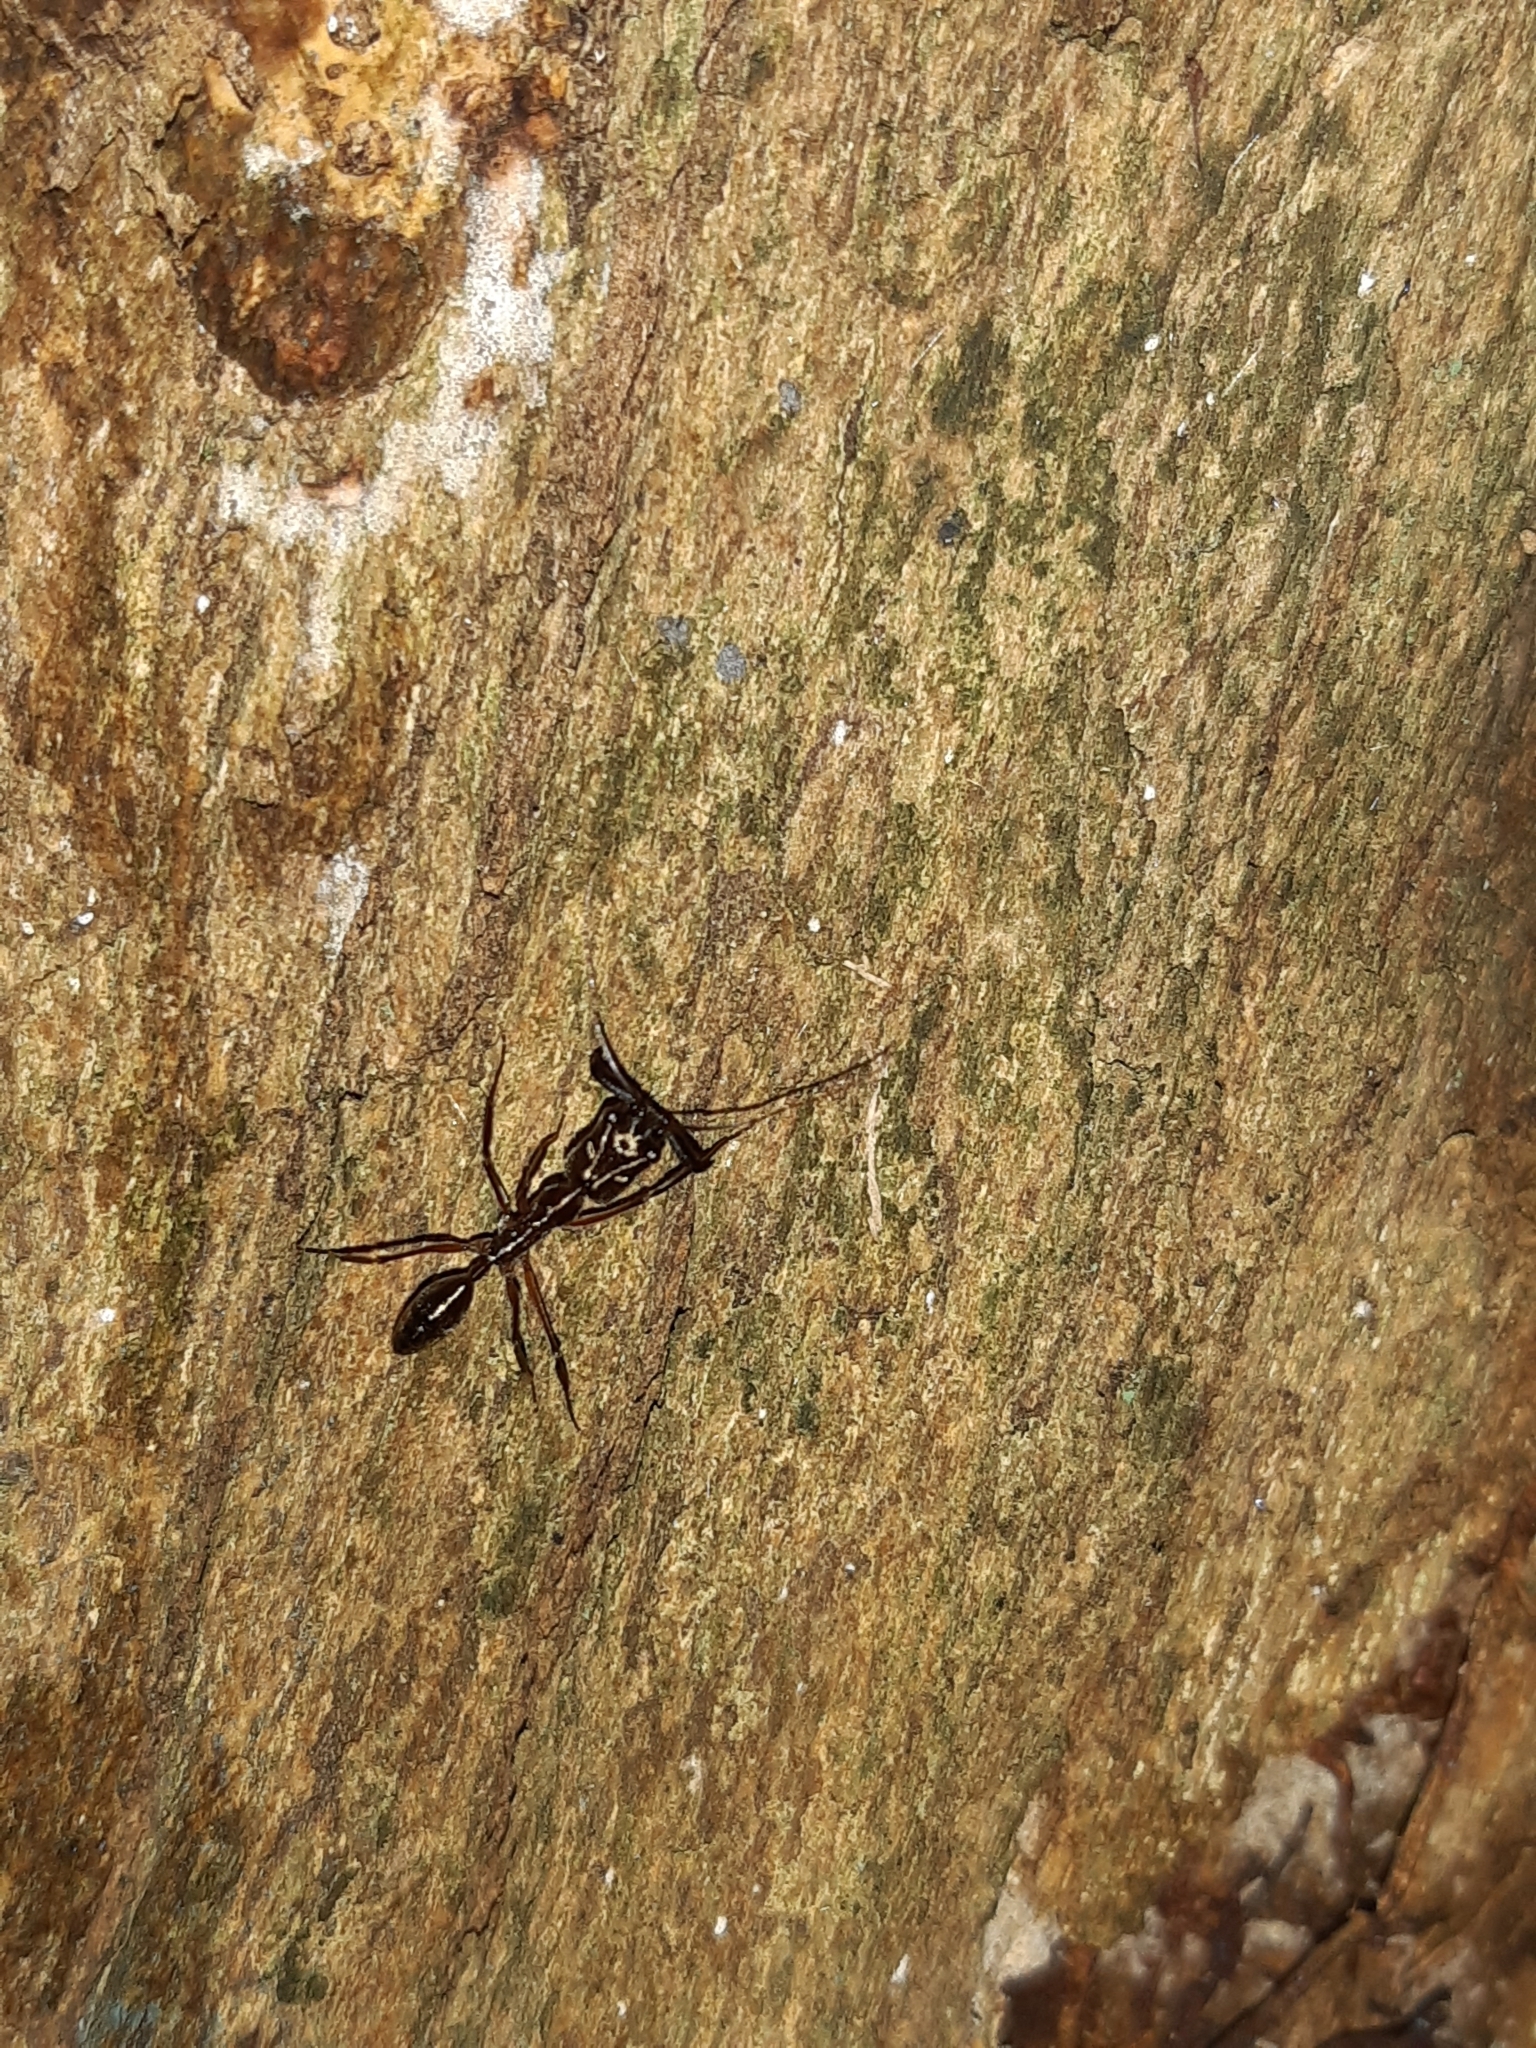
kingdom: Animalia
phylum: Arthropoda
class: Insecta
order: Hymenoptera
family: Formicidae
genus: Odontomachus
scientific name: Odontomachus chelifer
